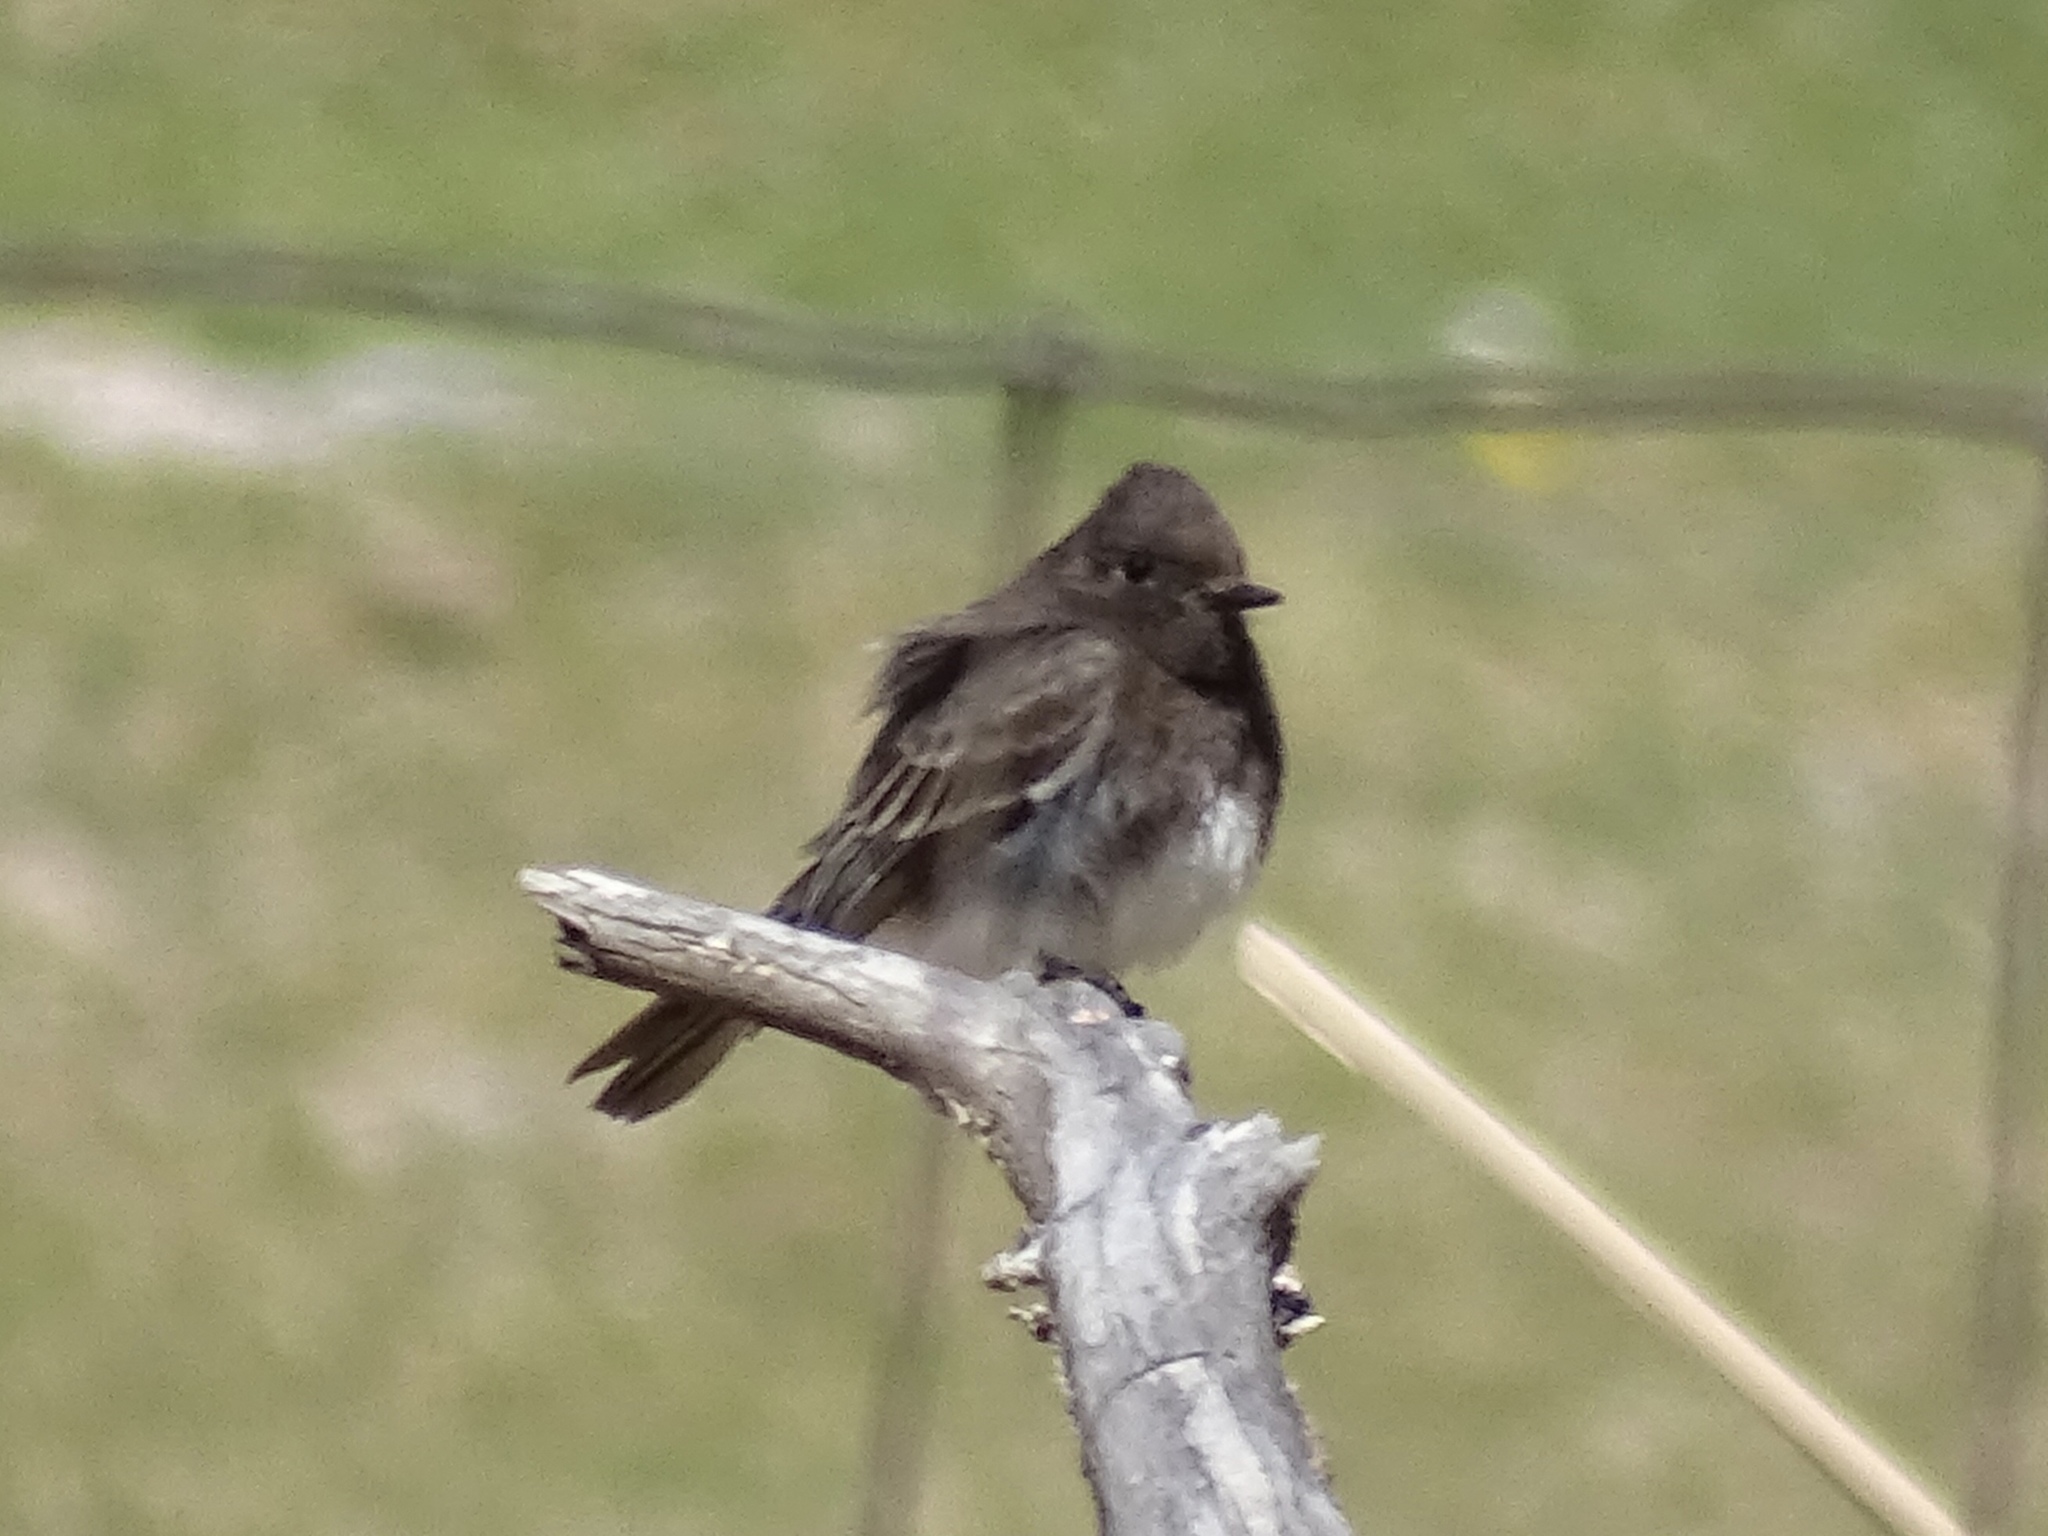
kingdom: Animalia
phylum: Chordata
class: Aves
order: Passeriformes
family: Tyrannidae
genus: Sayornis
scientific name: Sayornis nigricans
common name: Black phoebe
